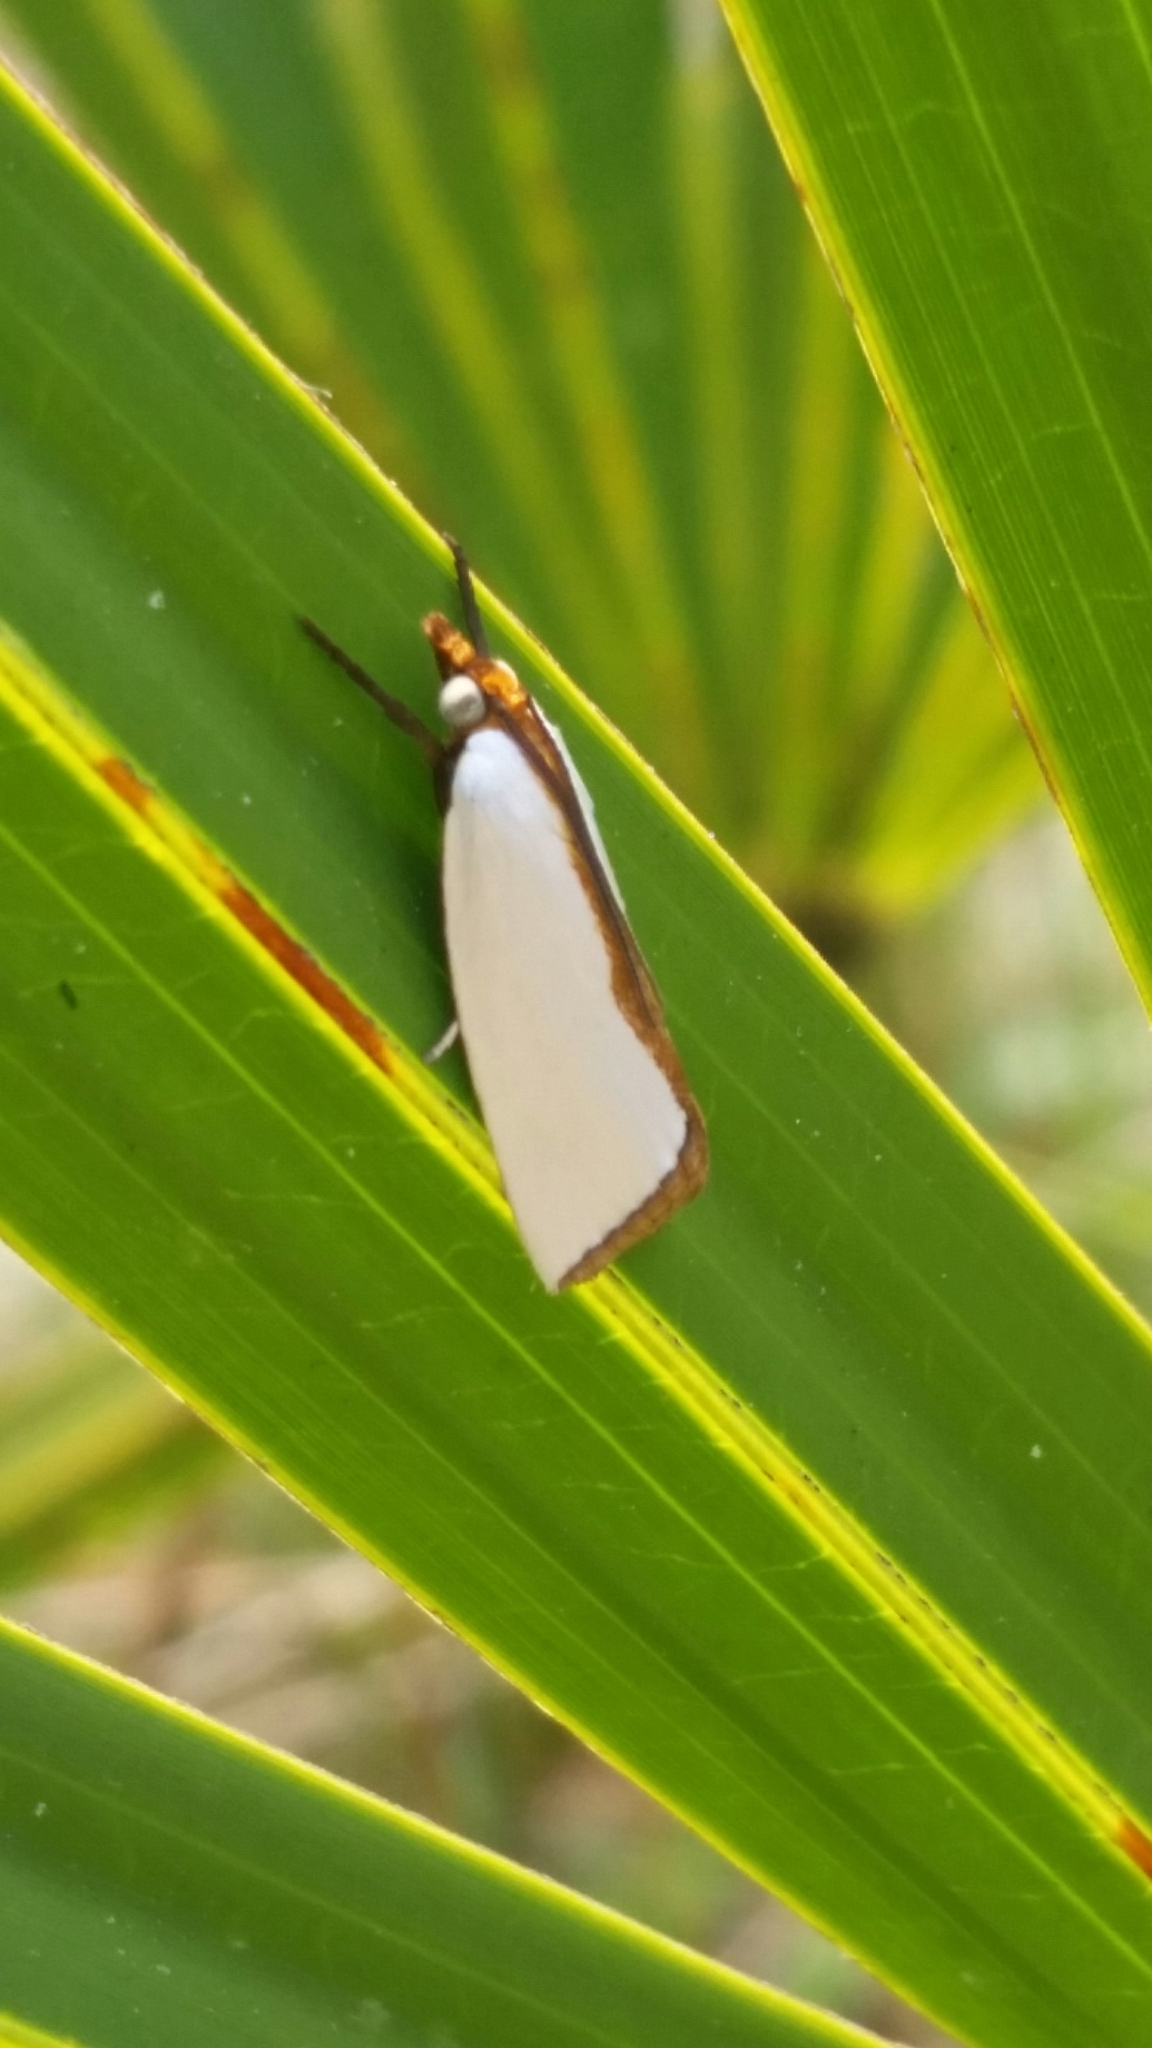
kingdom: Animalia
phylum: Arthropoda
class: Insecta
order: Lepidoptera
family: Crambidae
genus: Argyria
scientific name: Argyria
